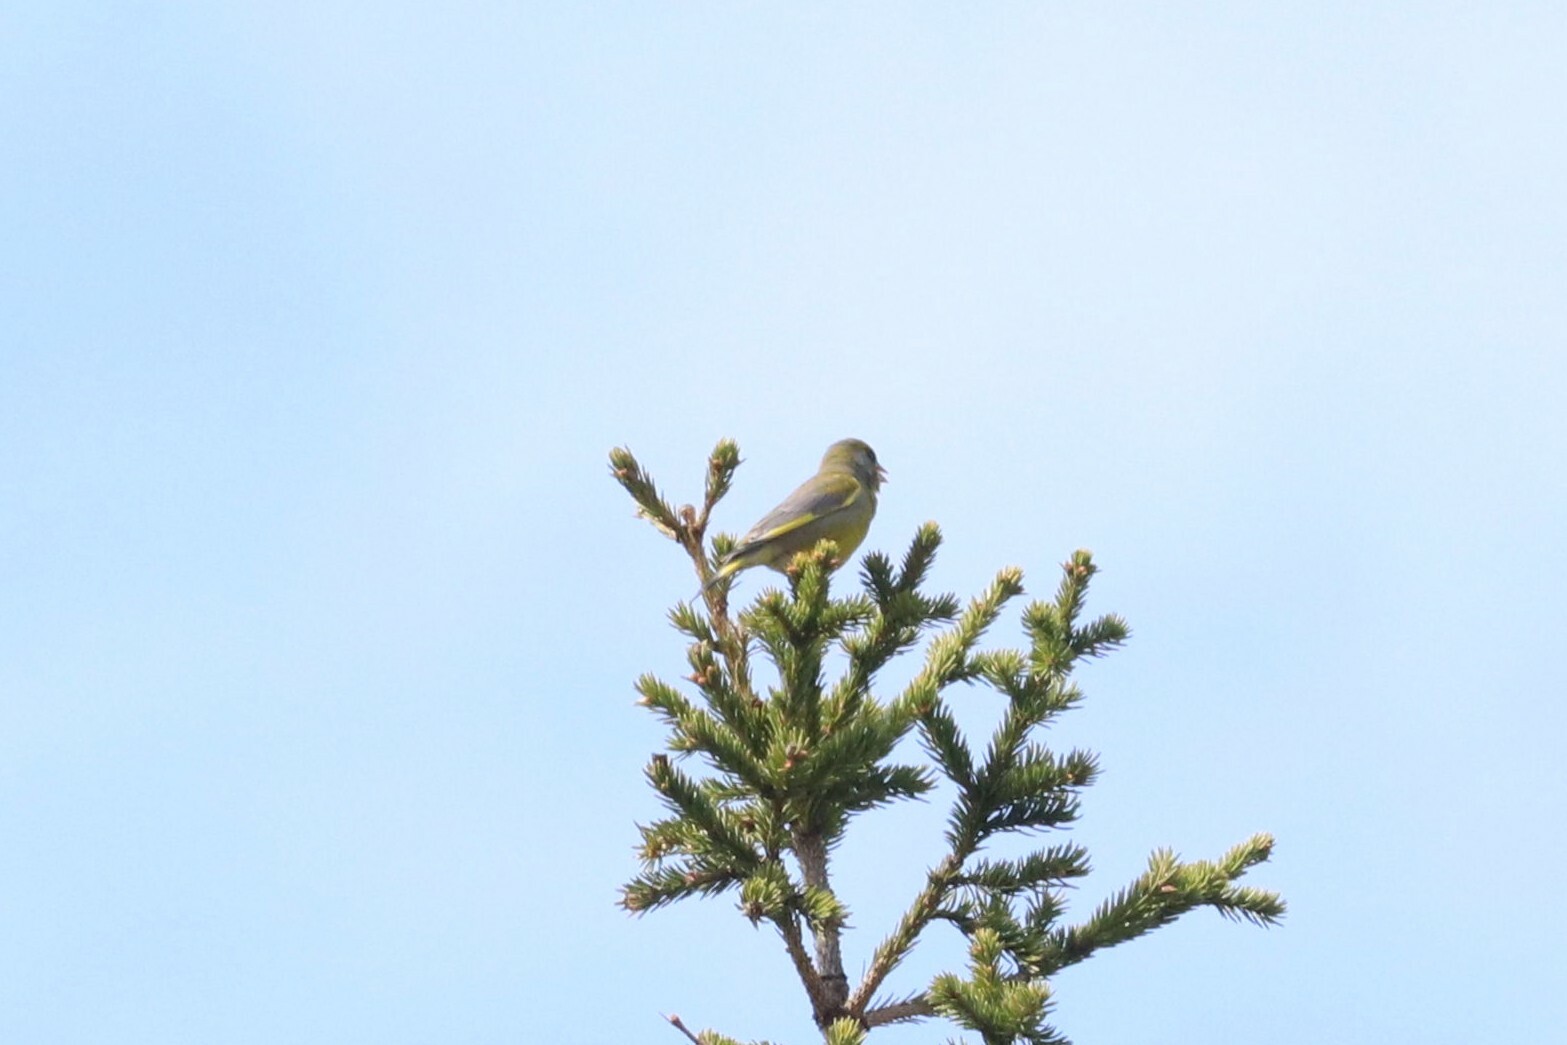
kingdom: Plantae
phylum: Tracheophyta
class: Liliopsida
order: Poales
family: Poaceae
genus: Chloris
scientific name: Chloris chloris
